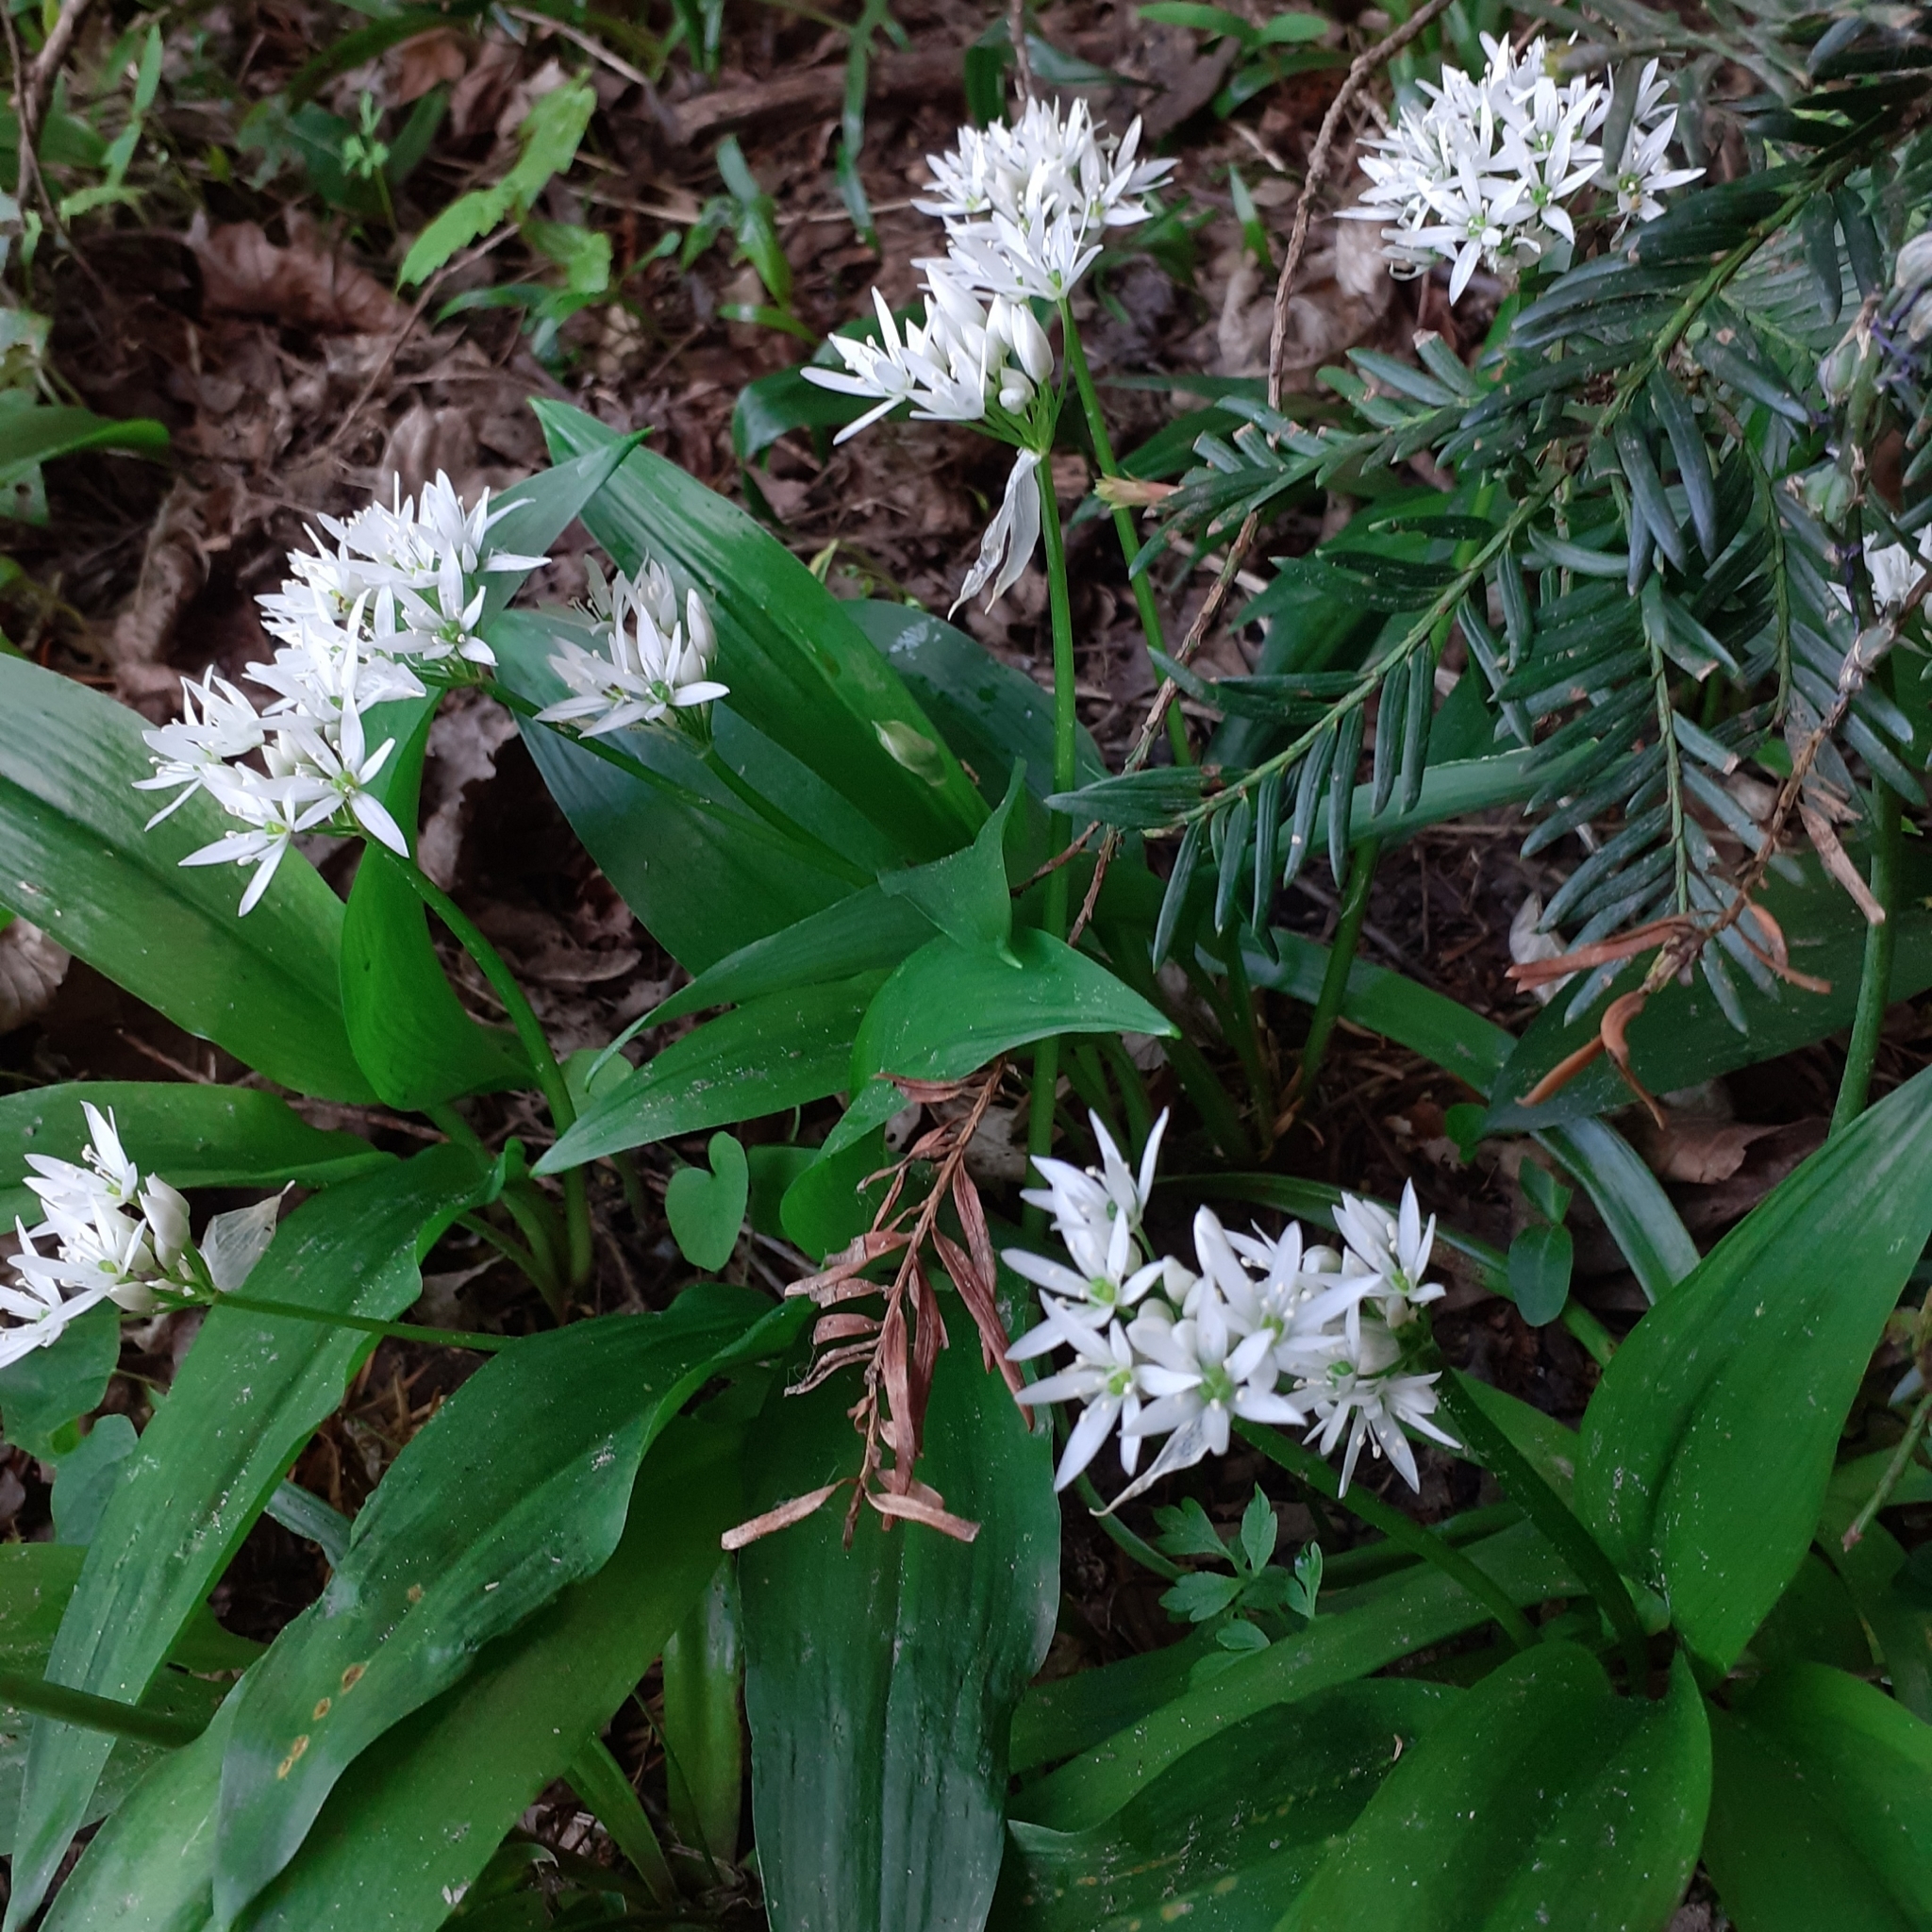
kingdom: Plantae
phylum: Tracheophyta
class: Liliopsida
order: Asparagales
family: Amaryllidaceae
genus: Allium
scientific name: Allium ursinum
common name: Ramsons
